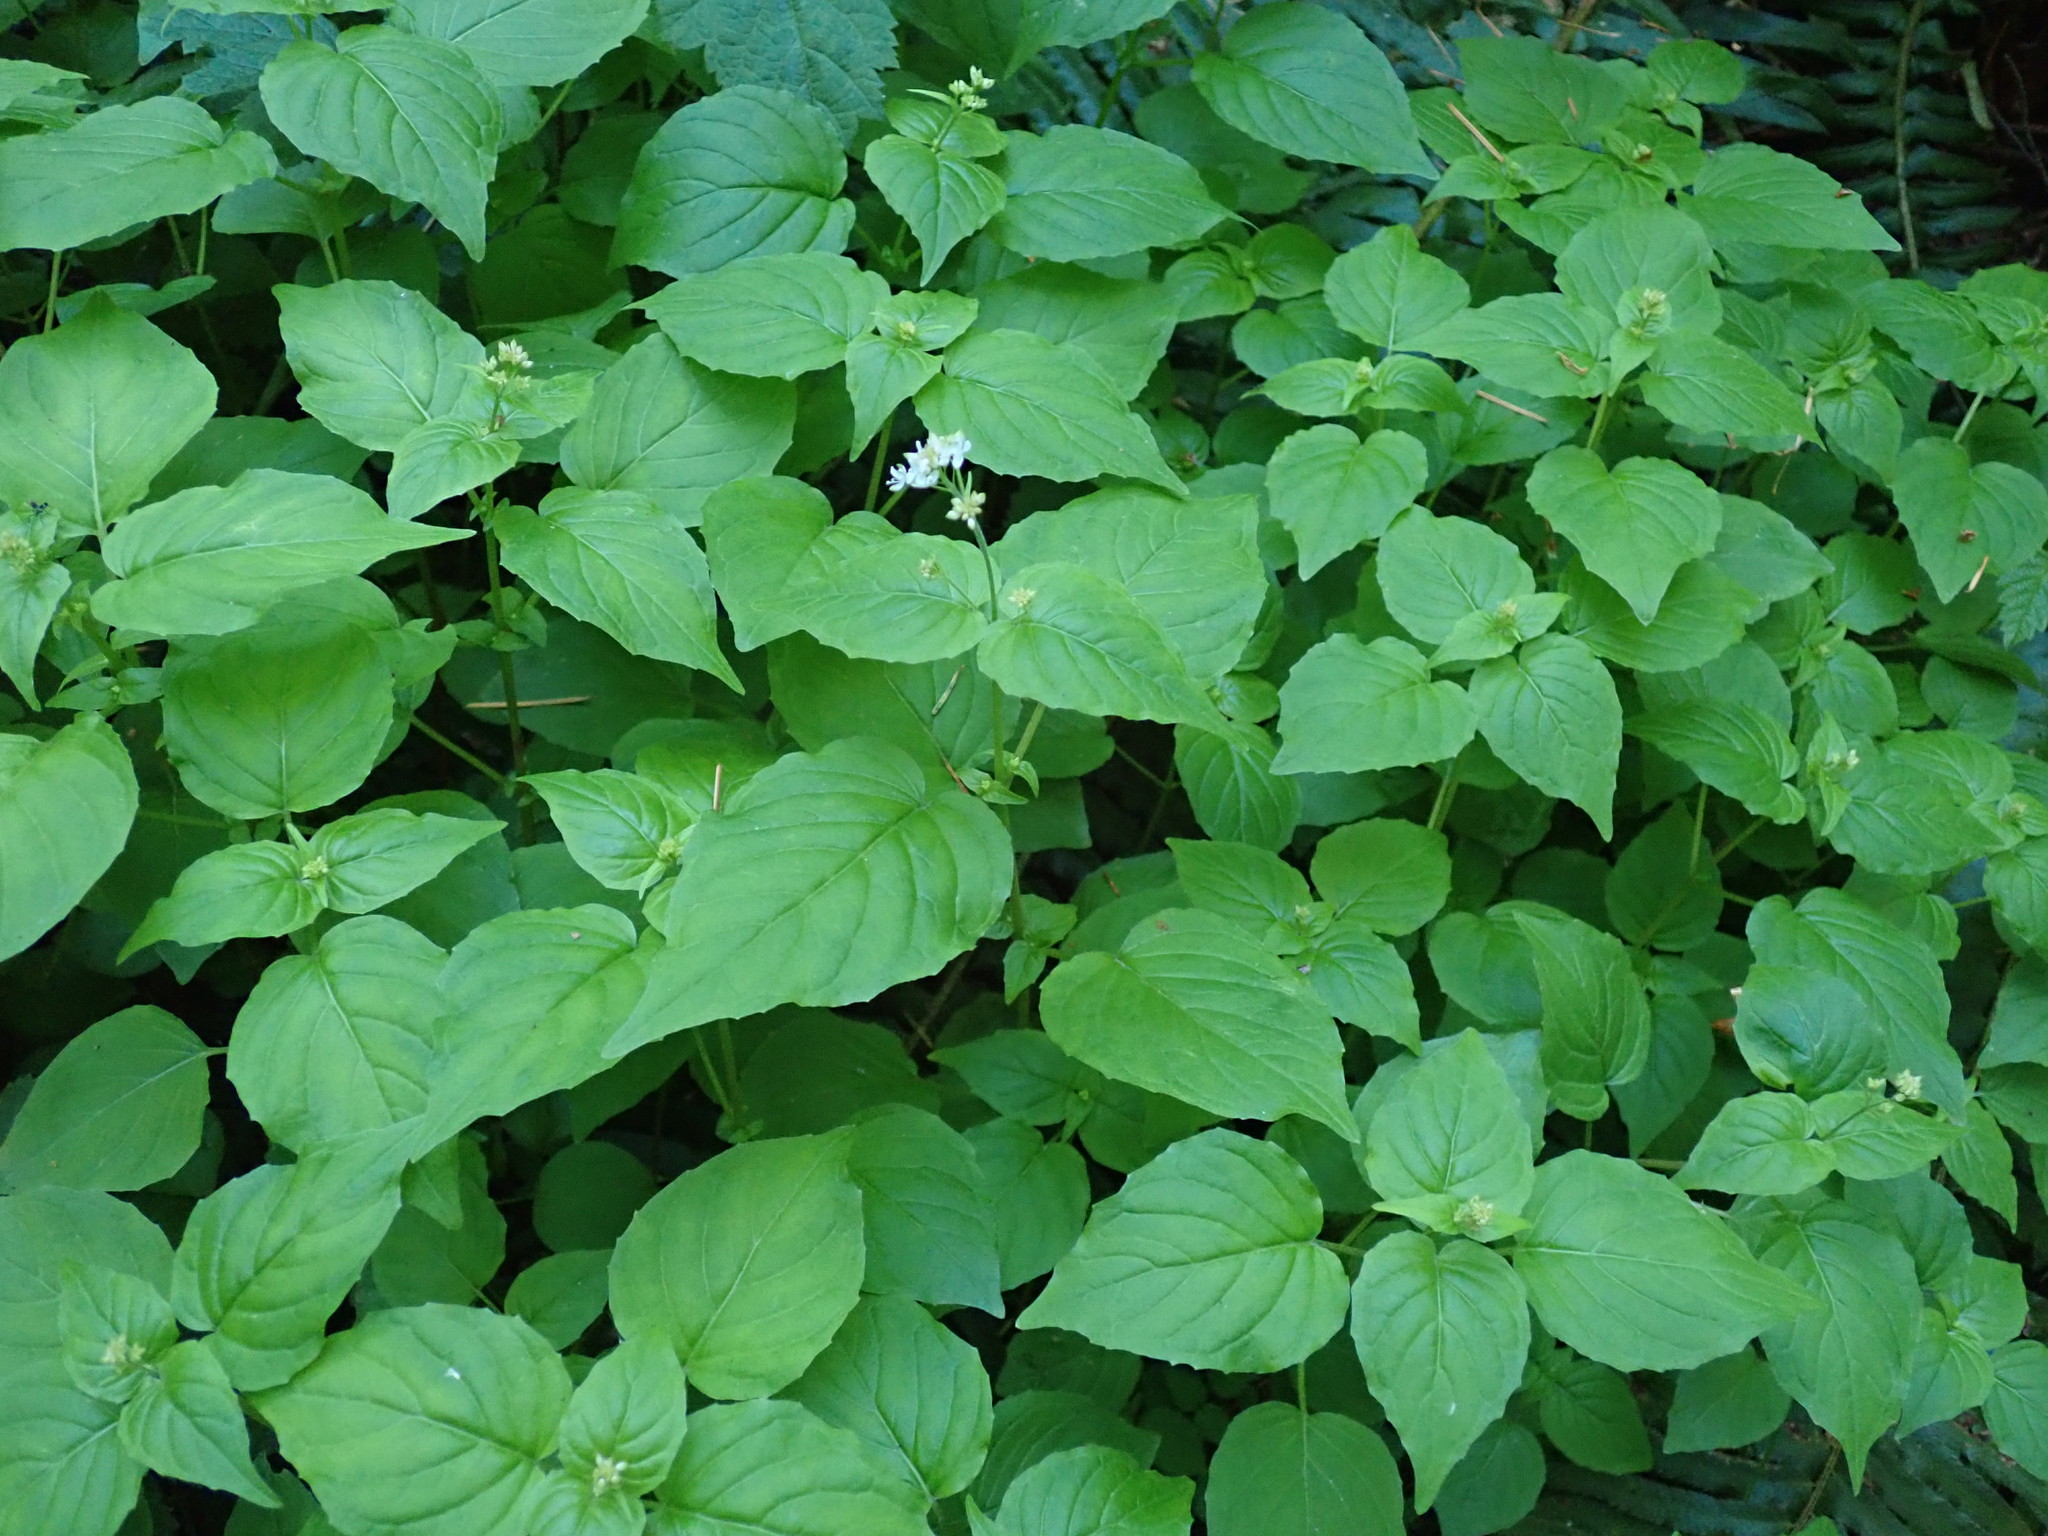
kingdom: Plantae
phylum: Tracheophyta
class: Magnoliopsida
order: Myrtales
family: Onagraceae
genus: Circaea
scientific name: Circaea alpina
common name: Alpine enchanter's-nightshade
